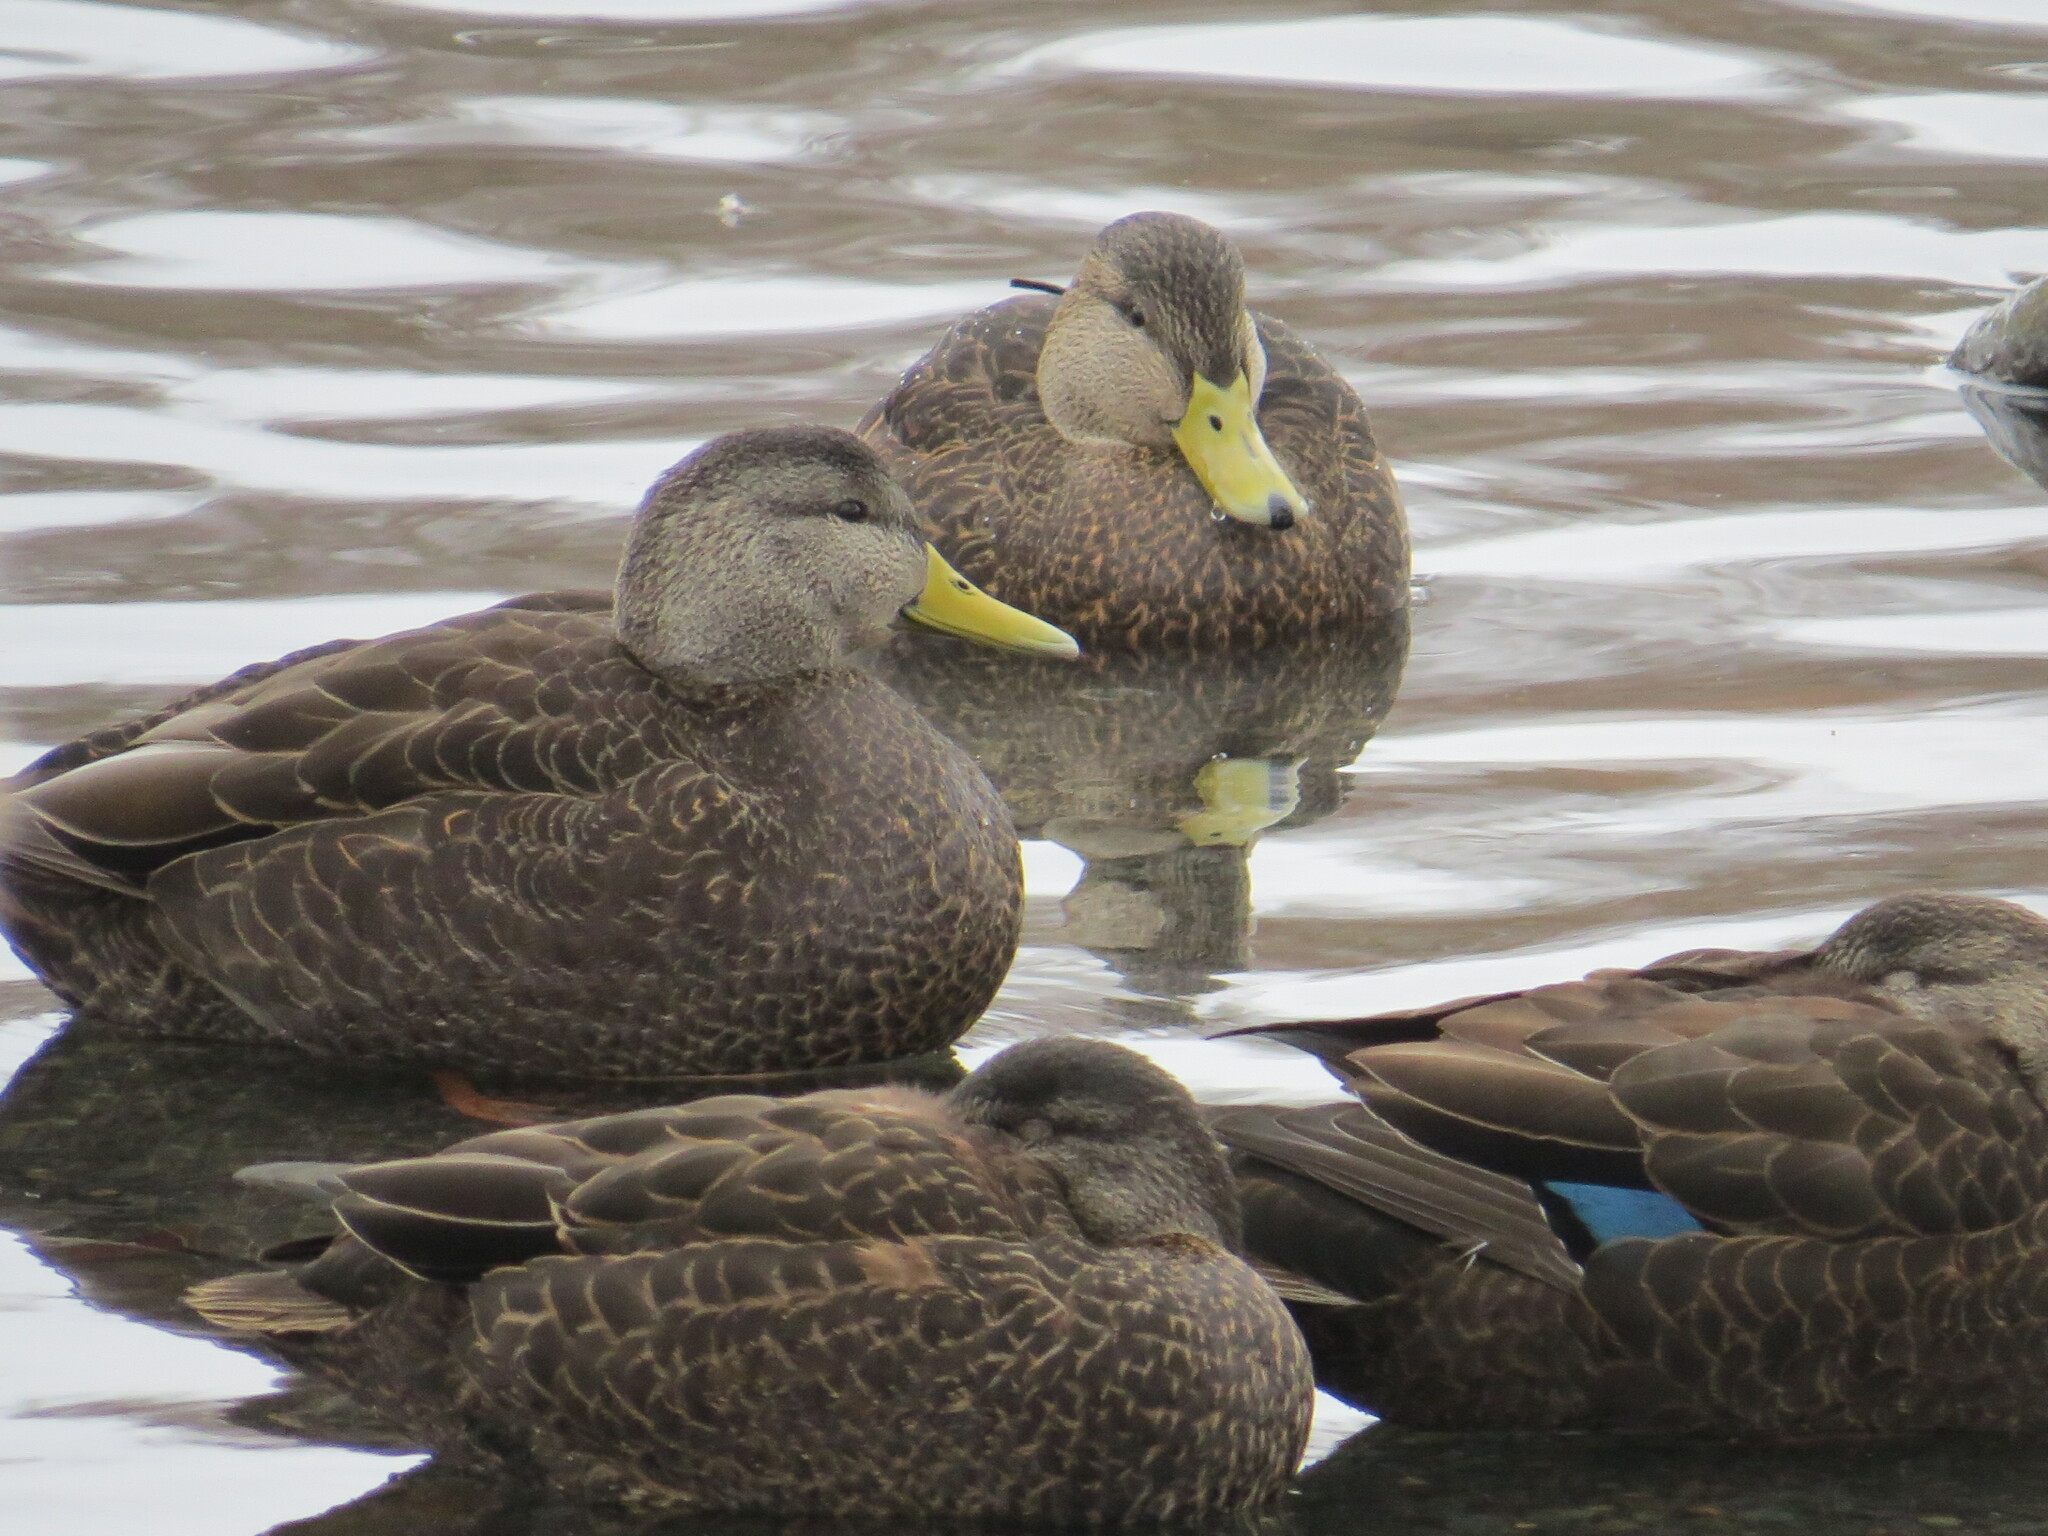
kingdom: Animalia
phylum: Chordata
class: Aves
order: Anseriformes
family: Anatidae
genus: Anas
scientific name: Anas rubripes
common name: American black duck
